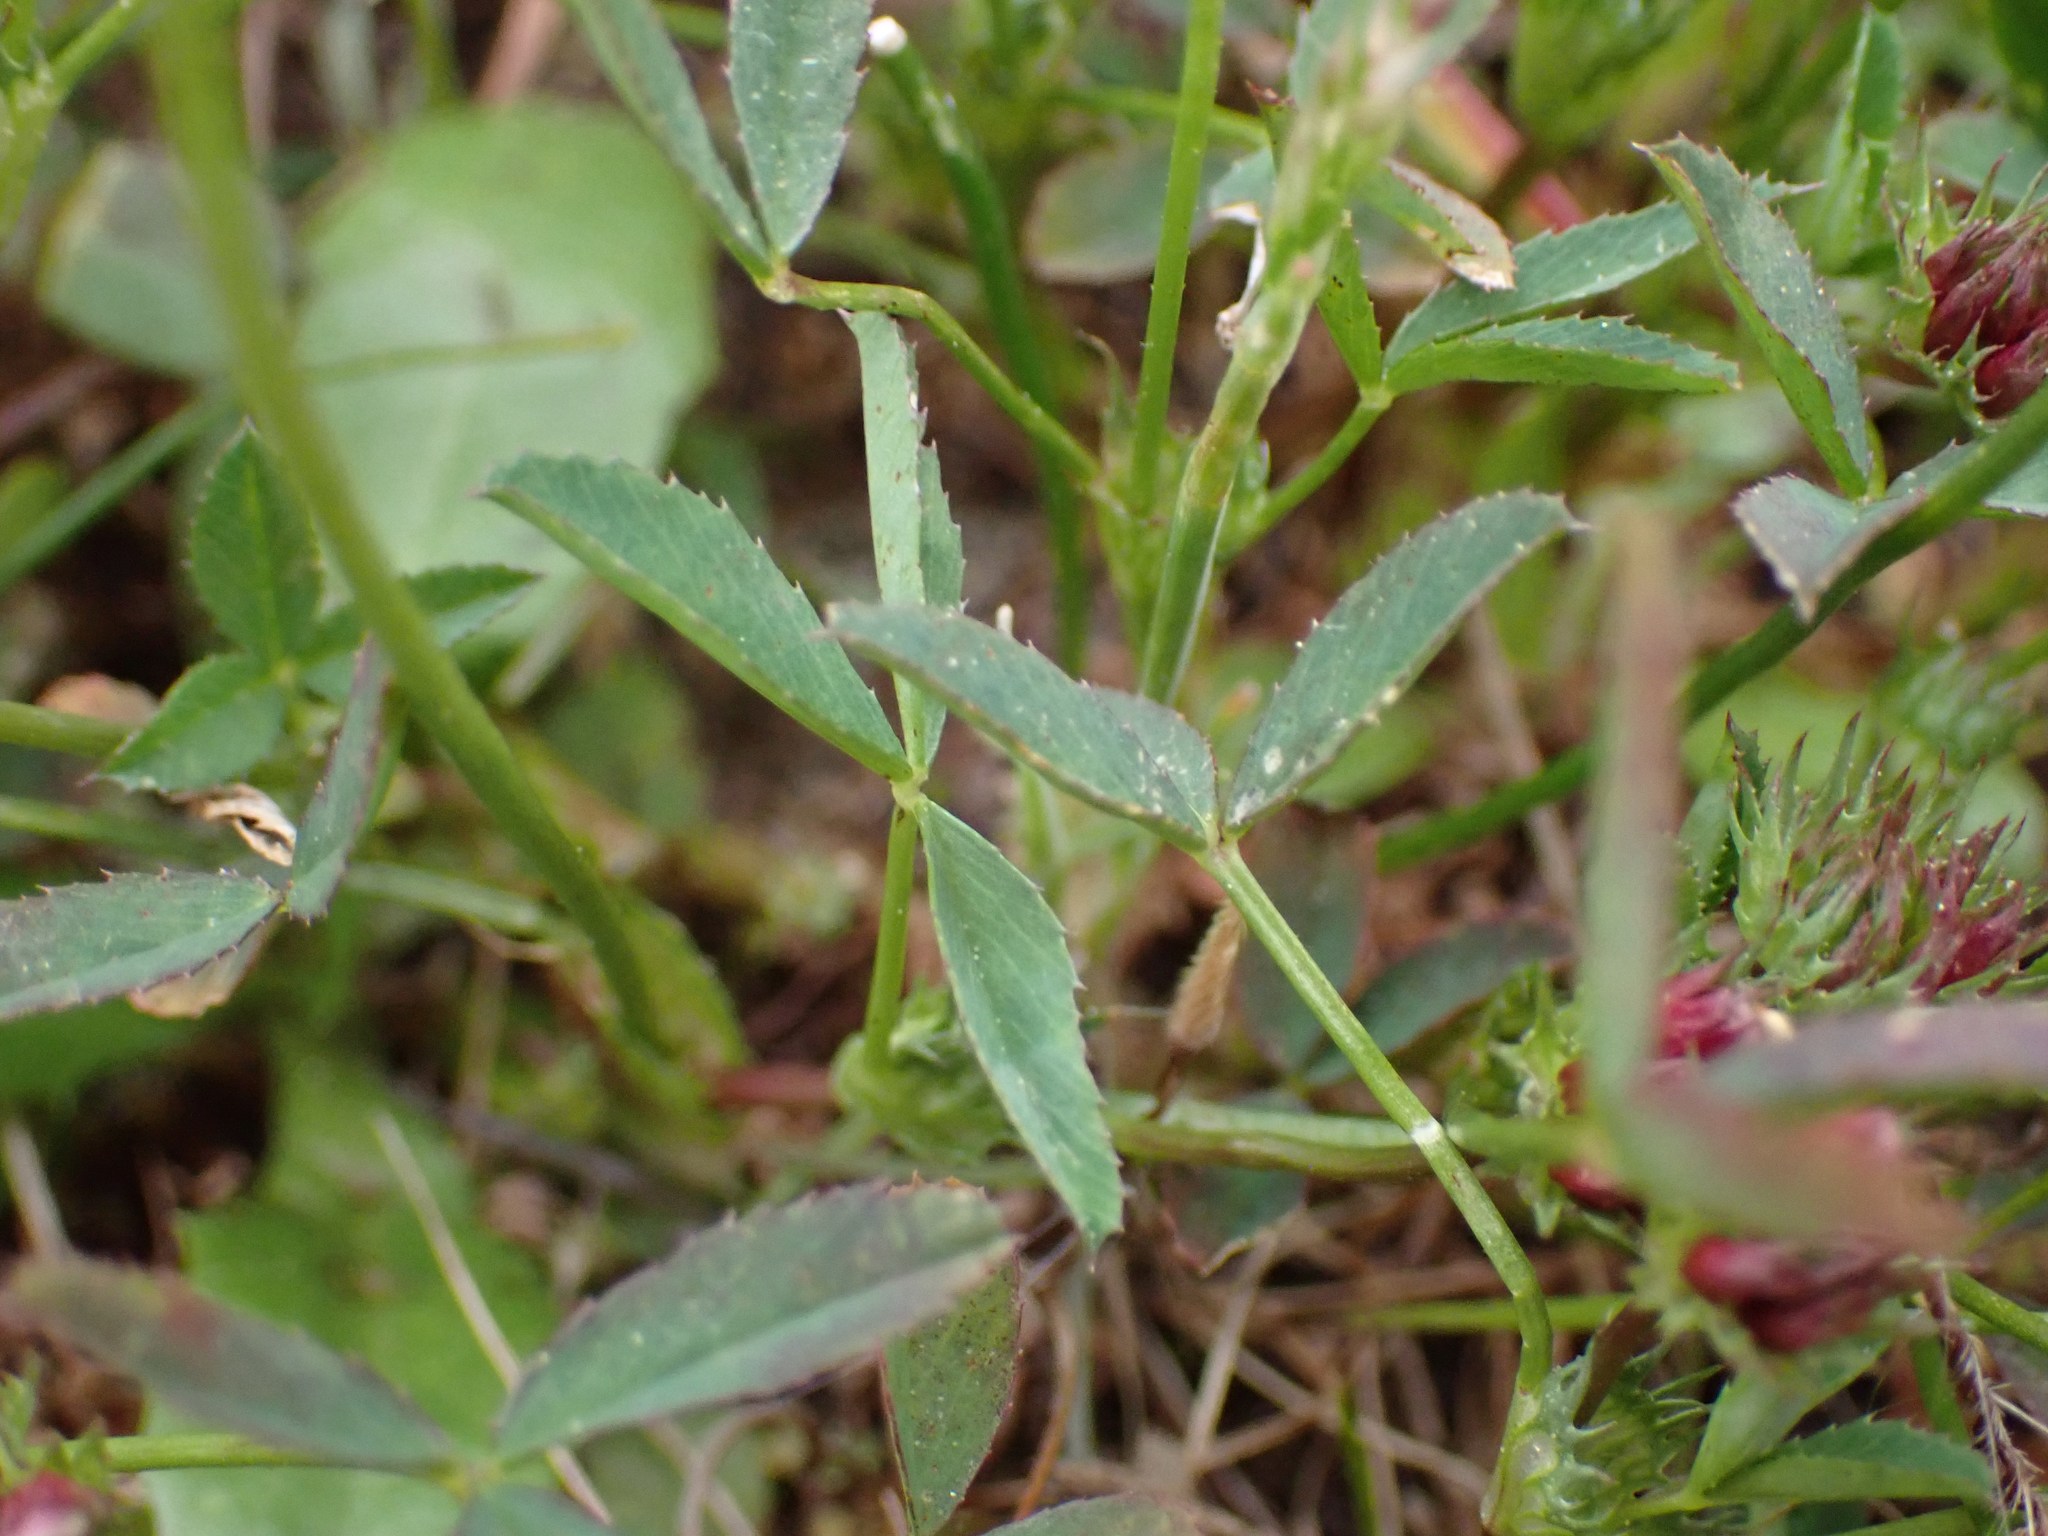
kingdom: Plantae
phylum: Tracheophyta
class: Magnoliopsida
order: Fabales
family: Fabaceae
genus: Trifolium
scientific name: Trifolium willdenovii
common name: Tomcat clover
